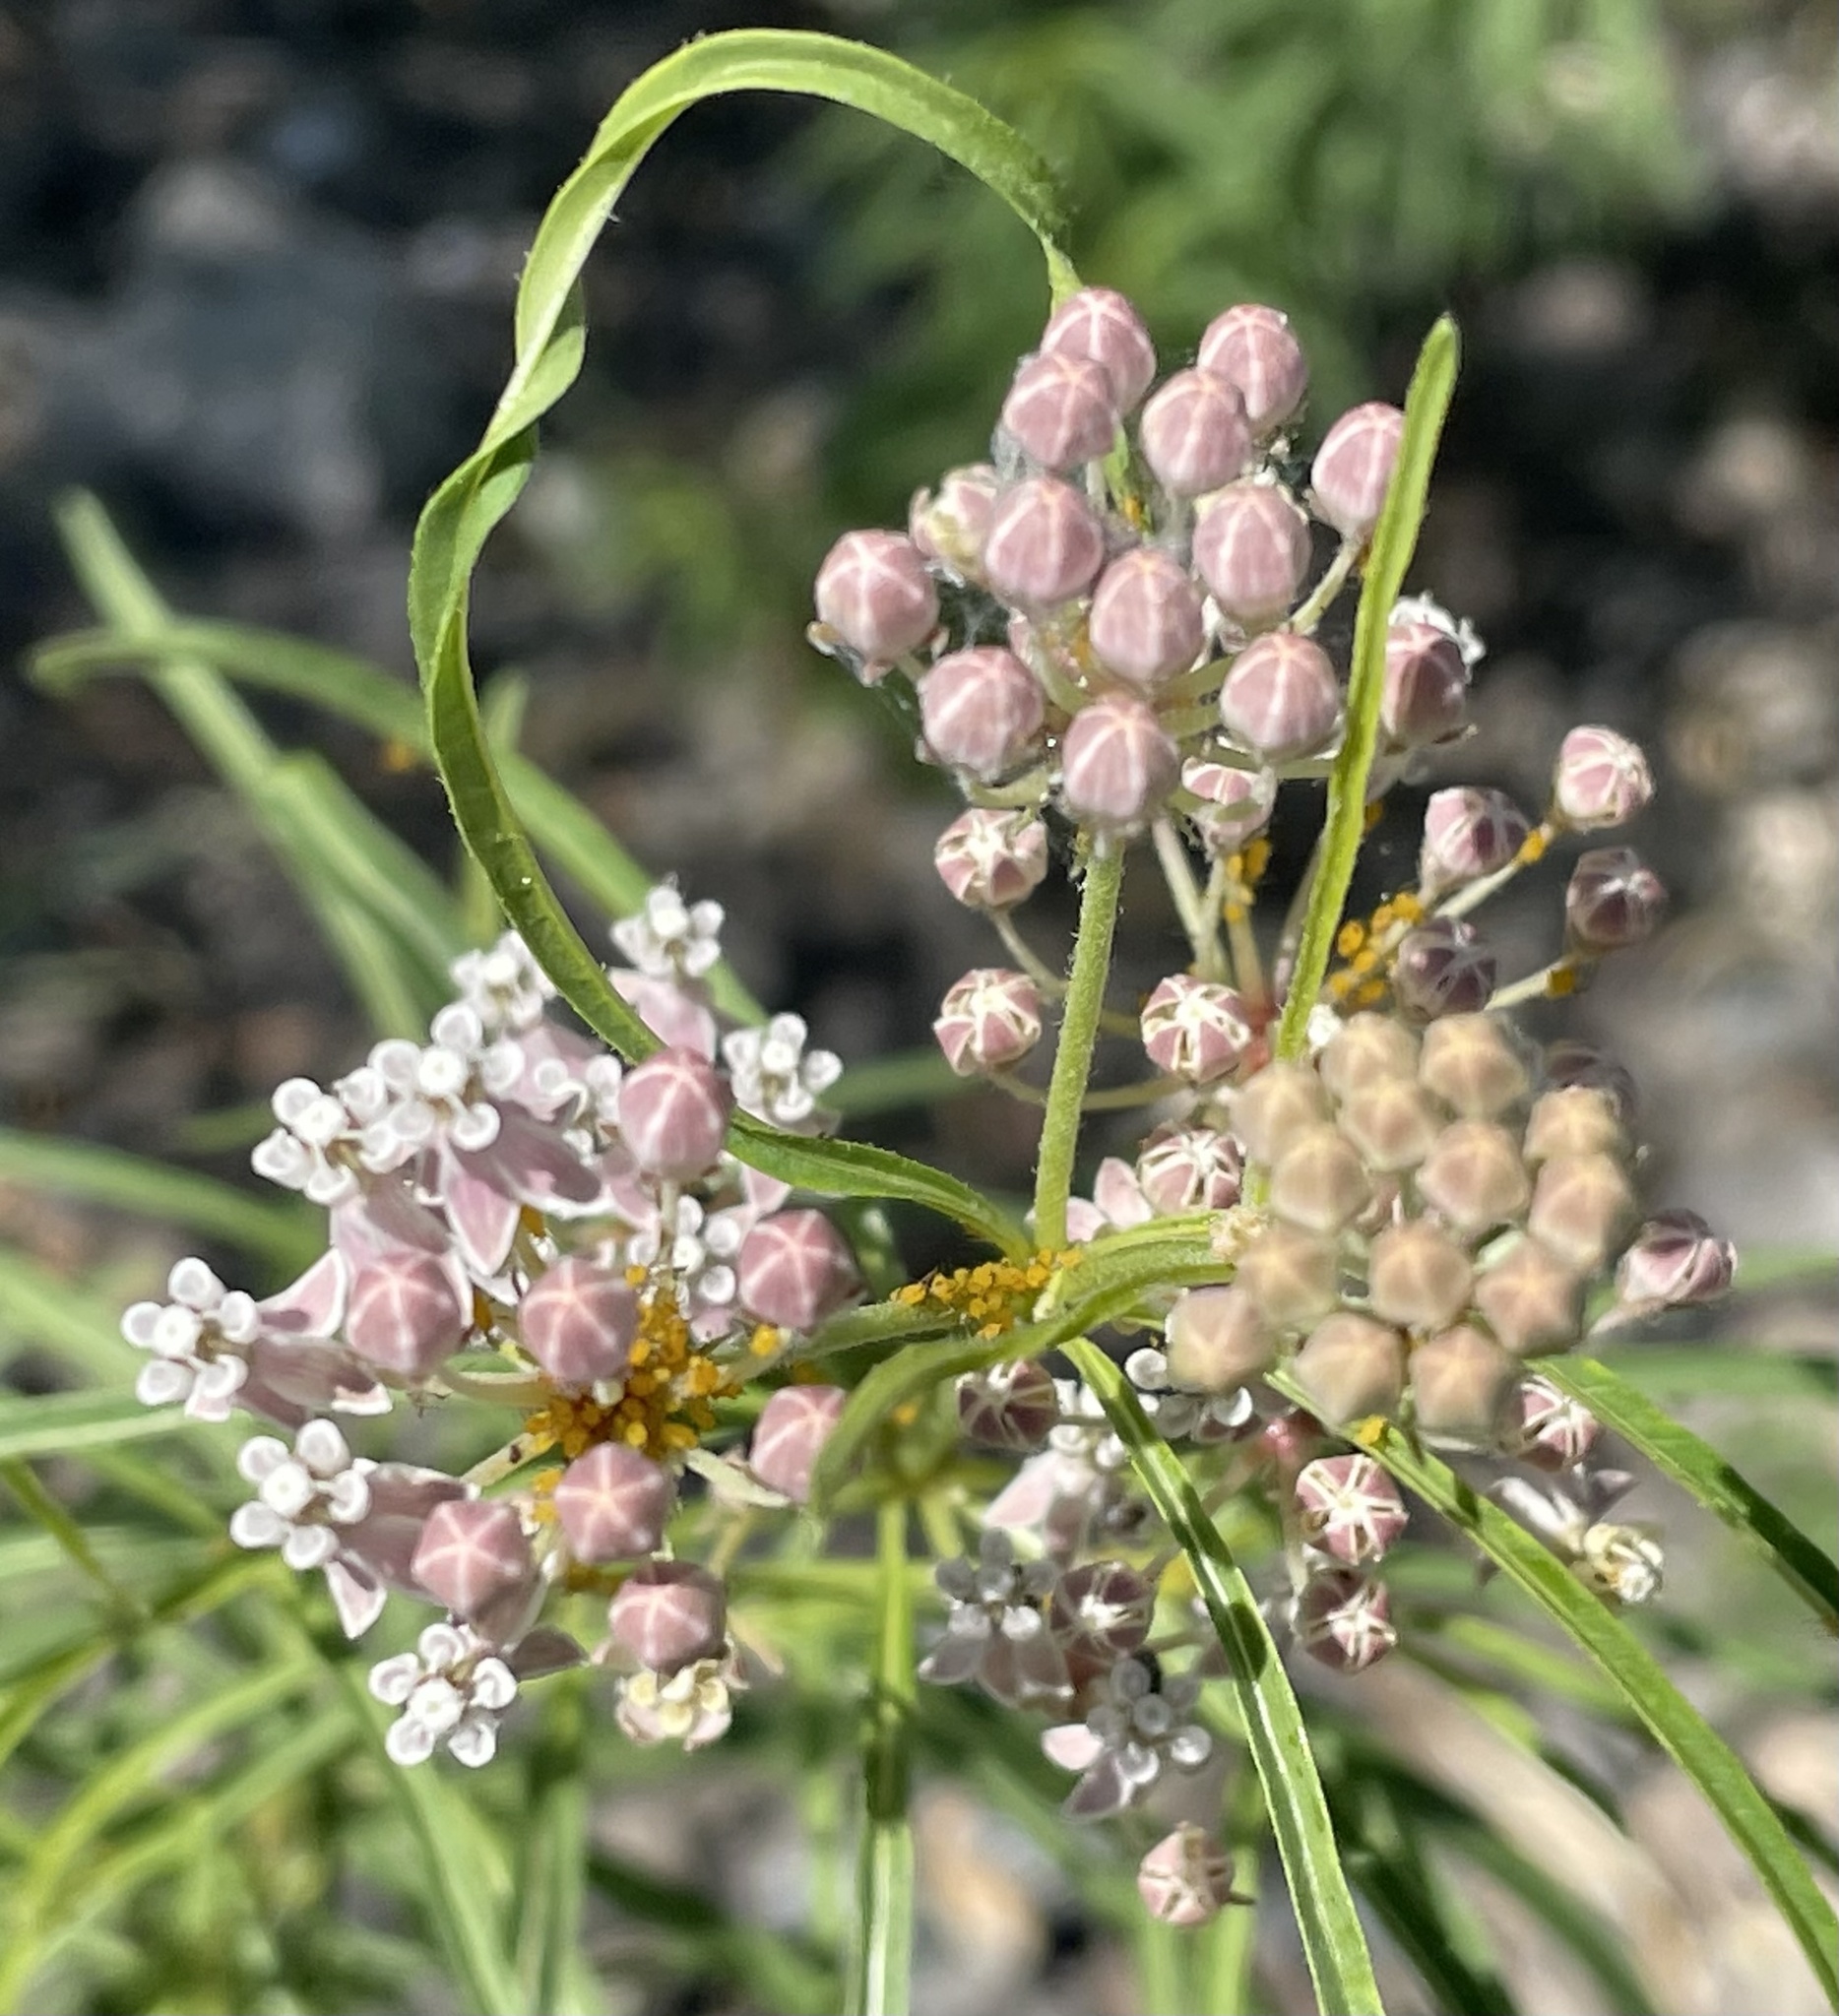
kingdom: Plantae
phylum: Tracheophyta
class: Magnoliopsida
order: Gentianales
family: Apocynaceae
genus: Asclepias
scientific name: Asclepias fascicularis
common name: Mexican milkweed
